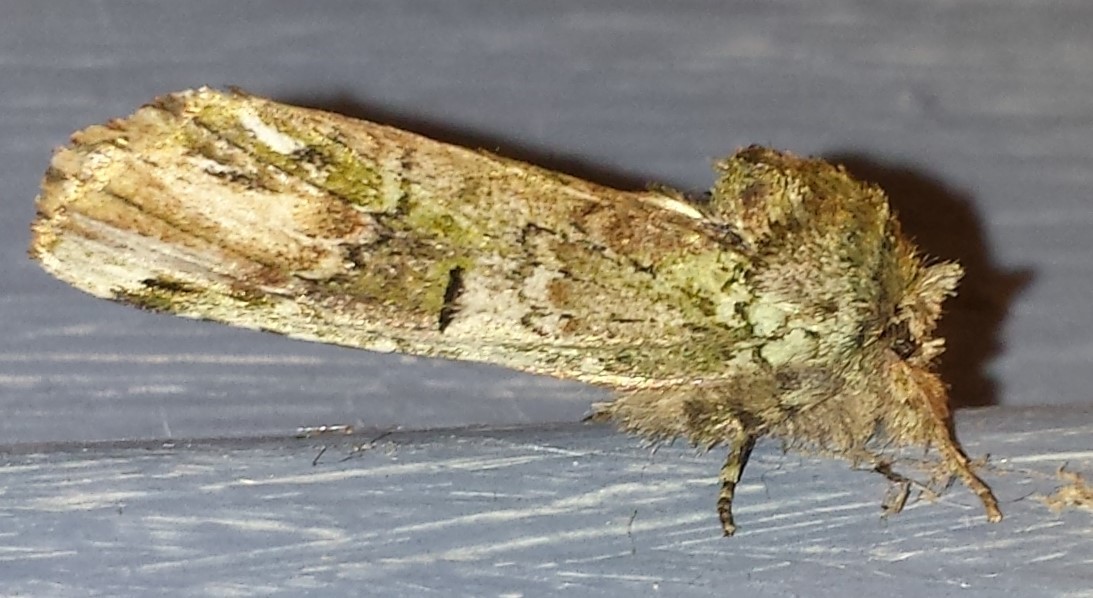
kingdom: Animalia
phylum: Arthropoda
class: Insecta
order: Lepidoptera
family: Notodontidae
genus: Schizura
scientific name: Schizura
